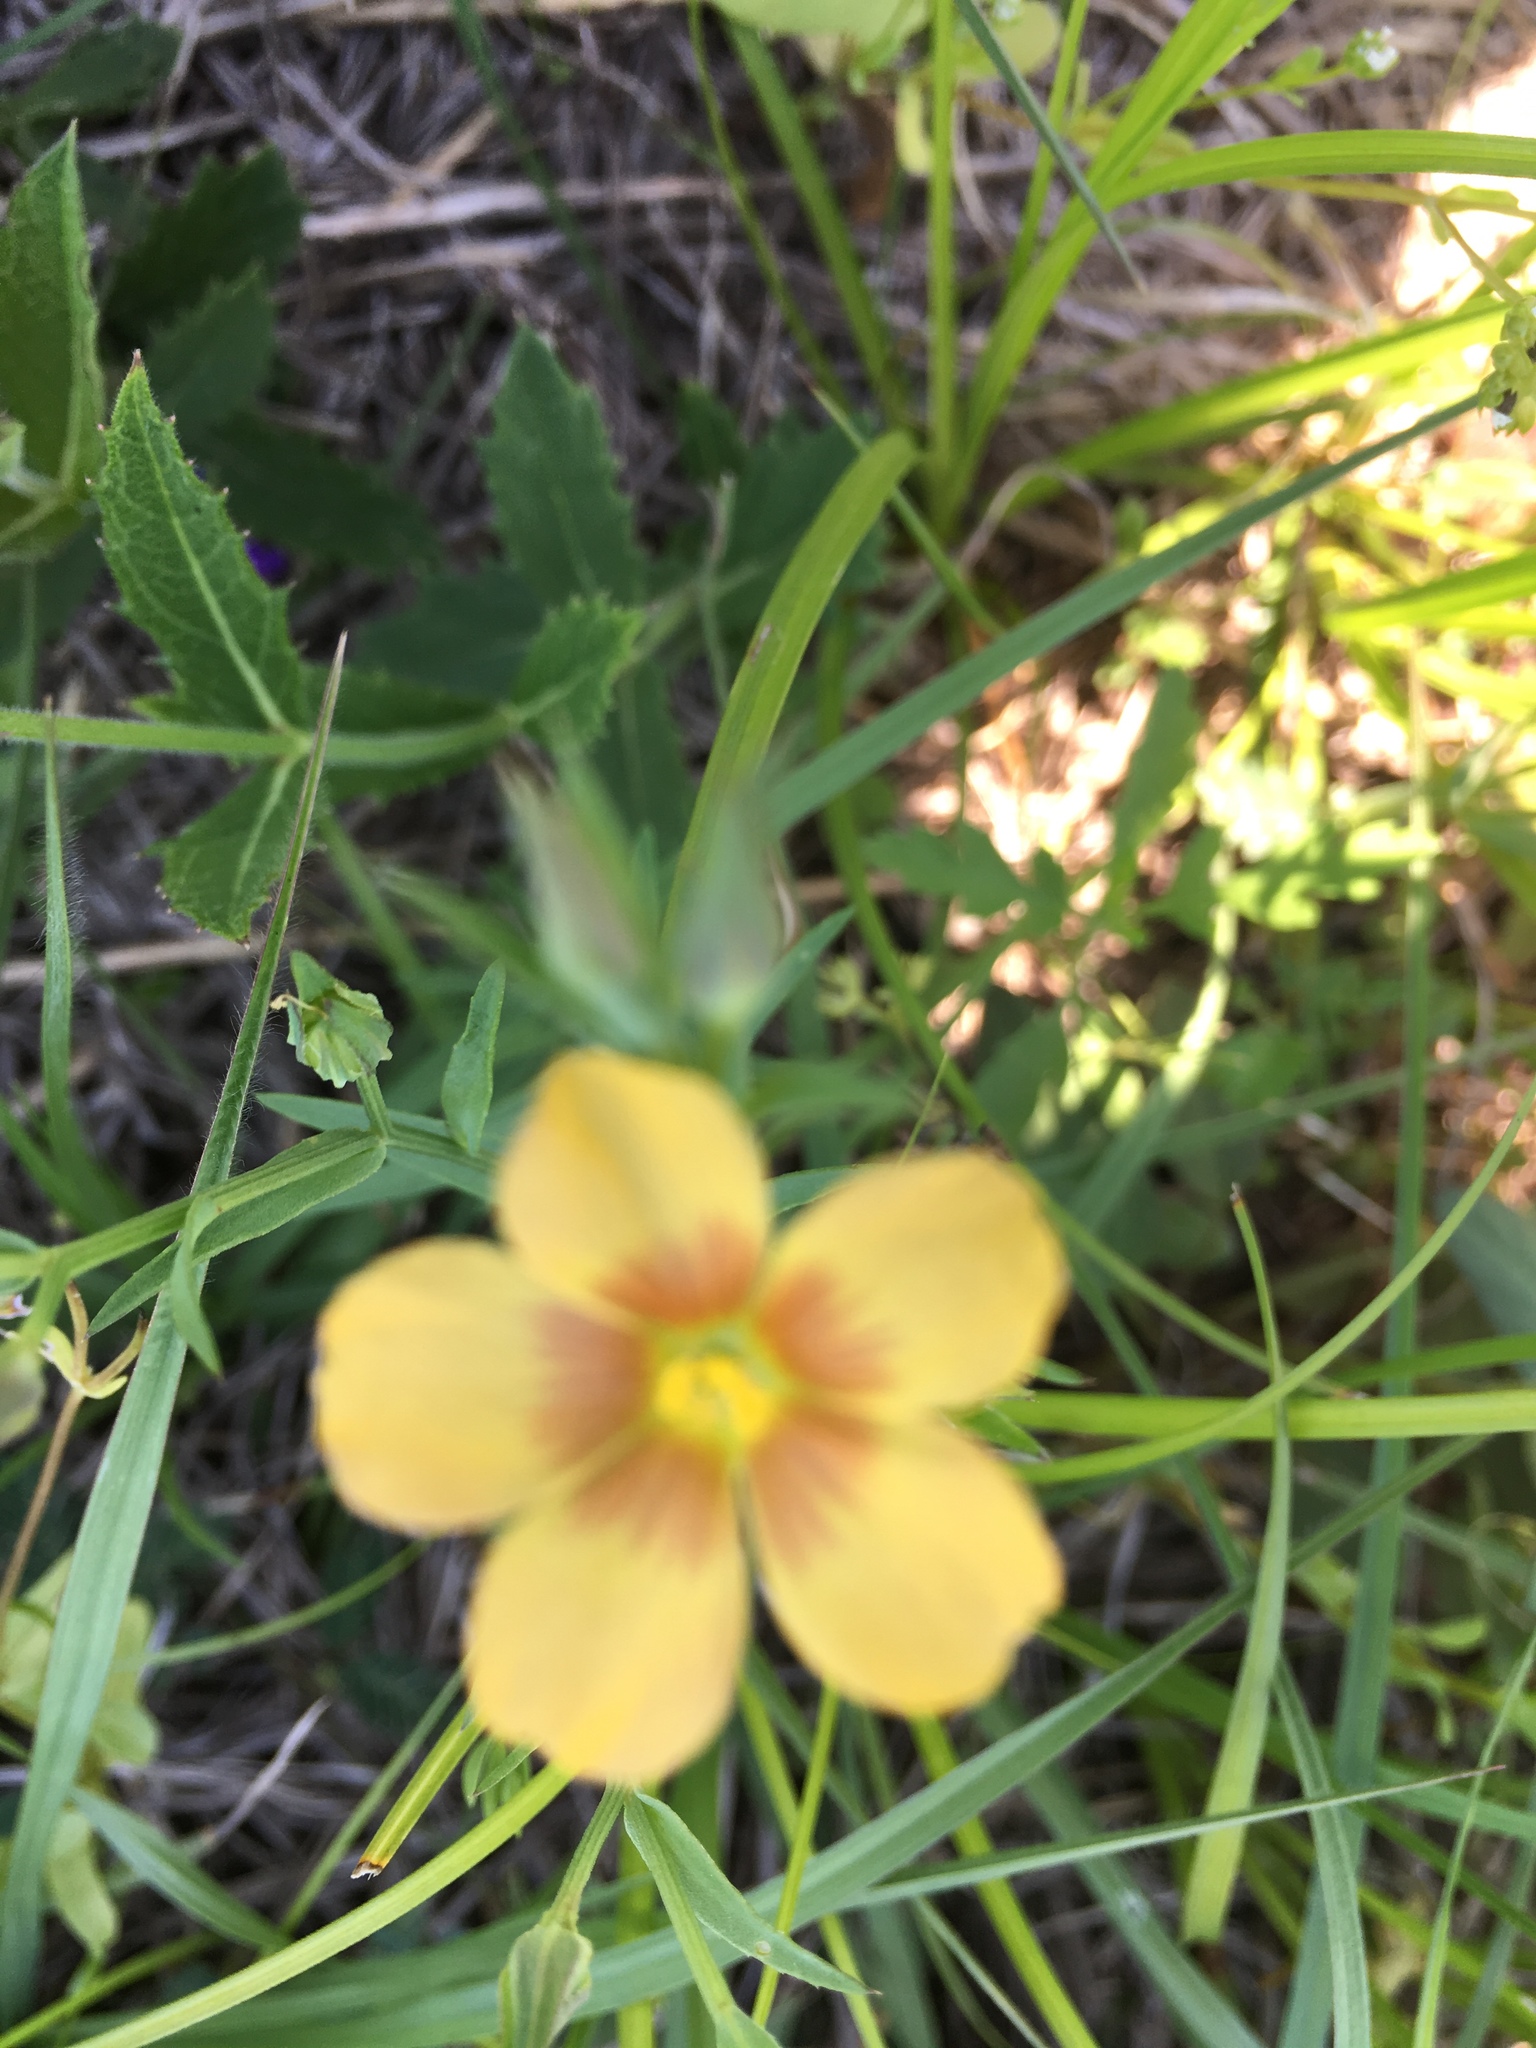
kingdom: Plantae
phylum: Tracheophyta
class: Magnoliopsida
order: Malpighiales
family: Linaceae
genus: Linum
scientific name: Linum berlandieri
